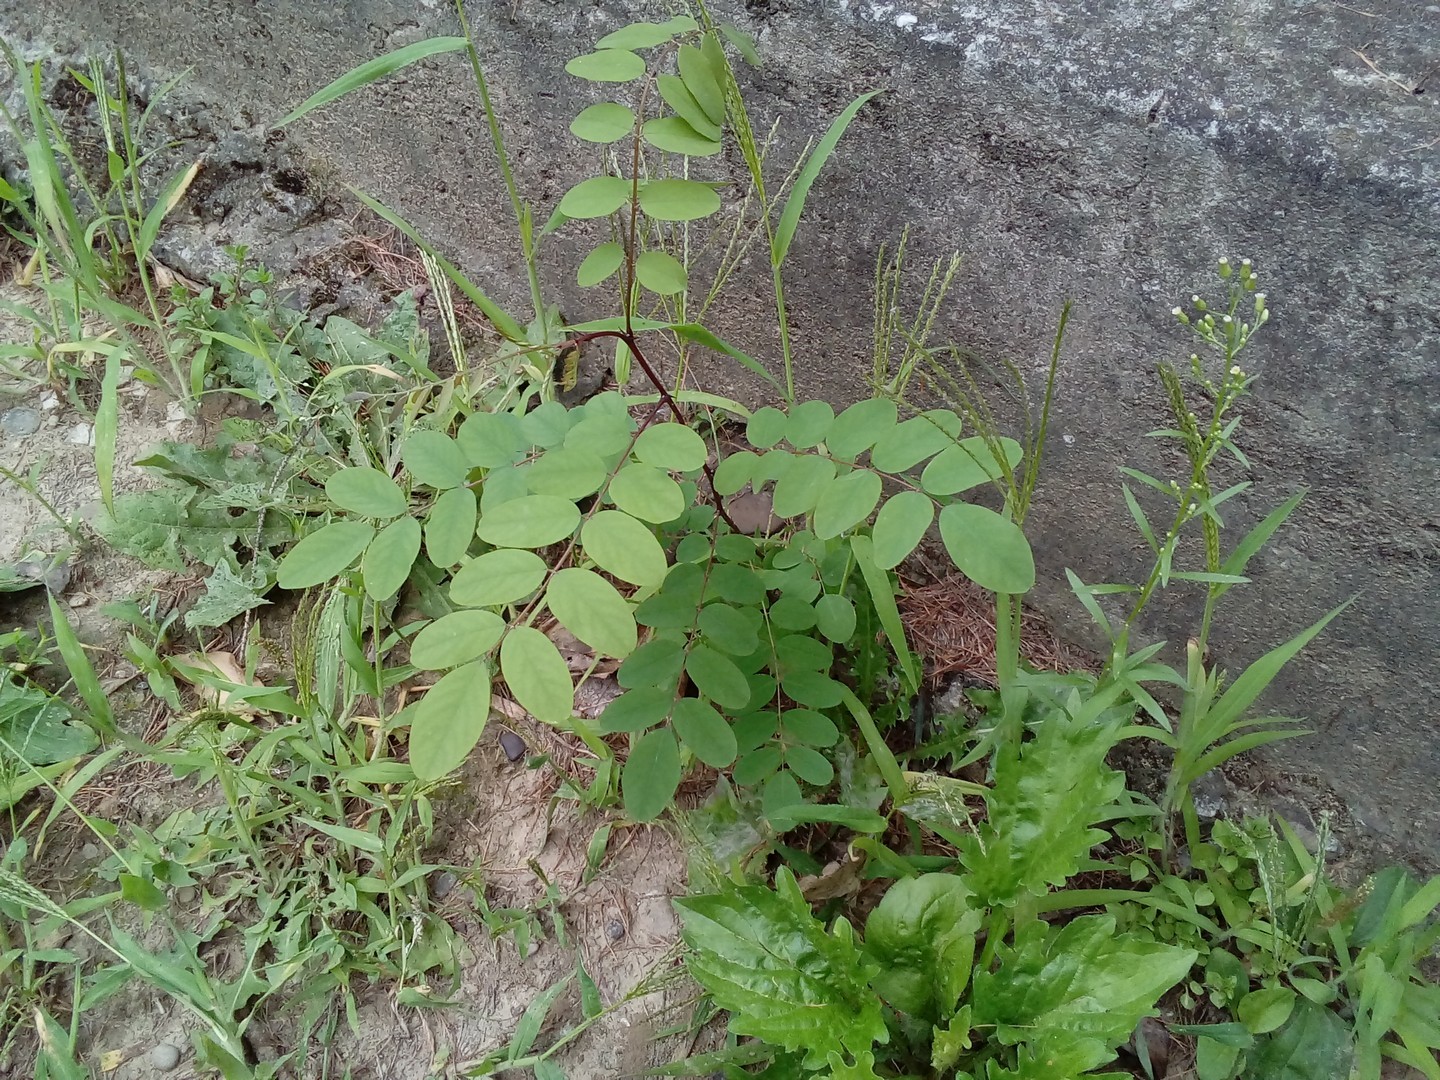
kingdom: Plantae
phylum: Tracheophyta
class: Magnoliopsida
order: Fabales
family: Fabaceae
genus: Robinia
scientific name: Robinia pseudoacacia
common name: Black locust
